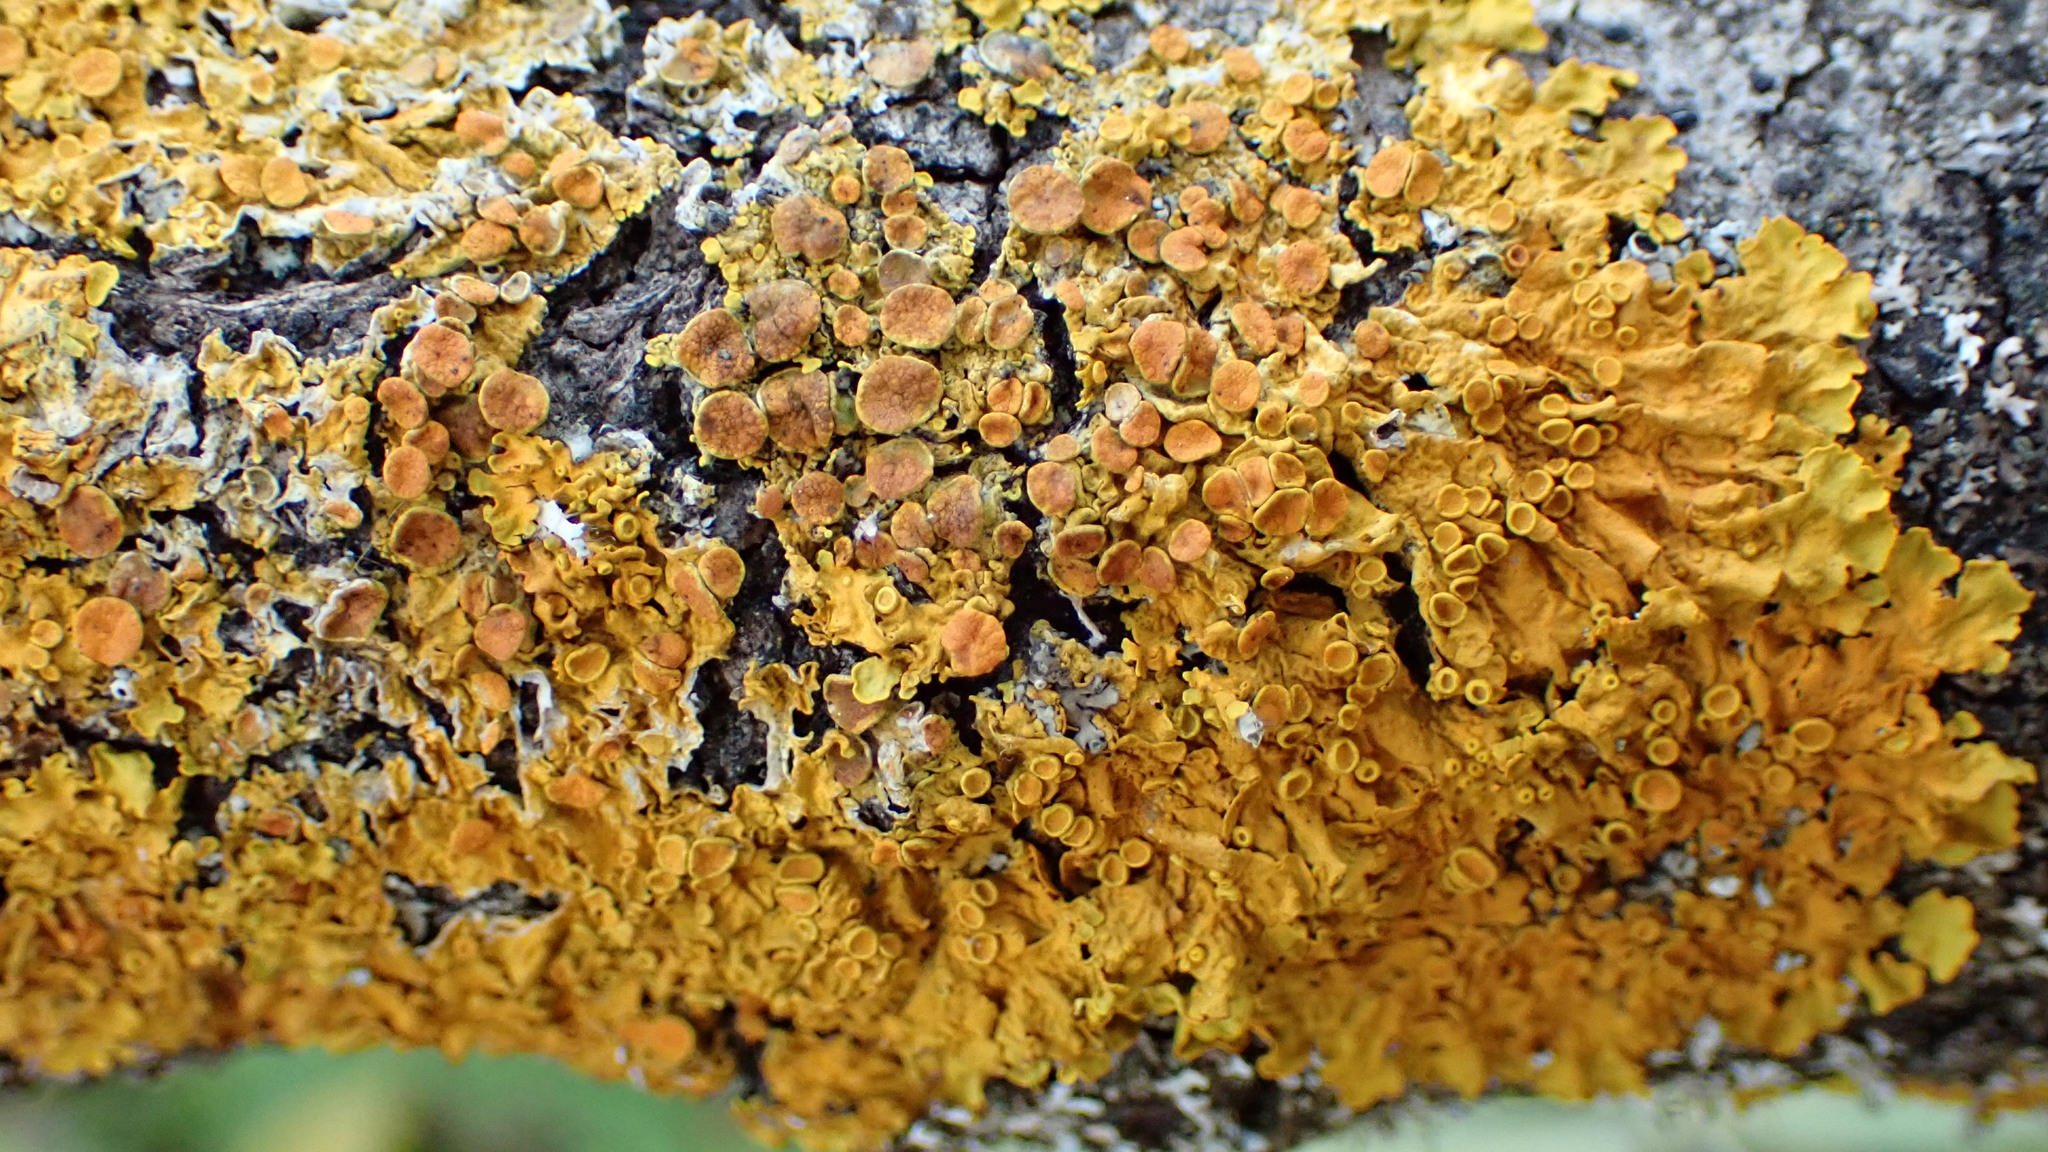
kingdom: Fungi
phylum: Ascomycota
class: Lecanoromycetes
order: Teloschistales
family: Teloschistaceae
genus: Xanthoria
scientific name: Xanthoria parietina
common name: Common orange lichen
